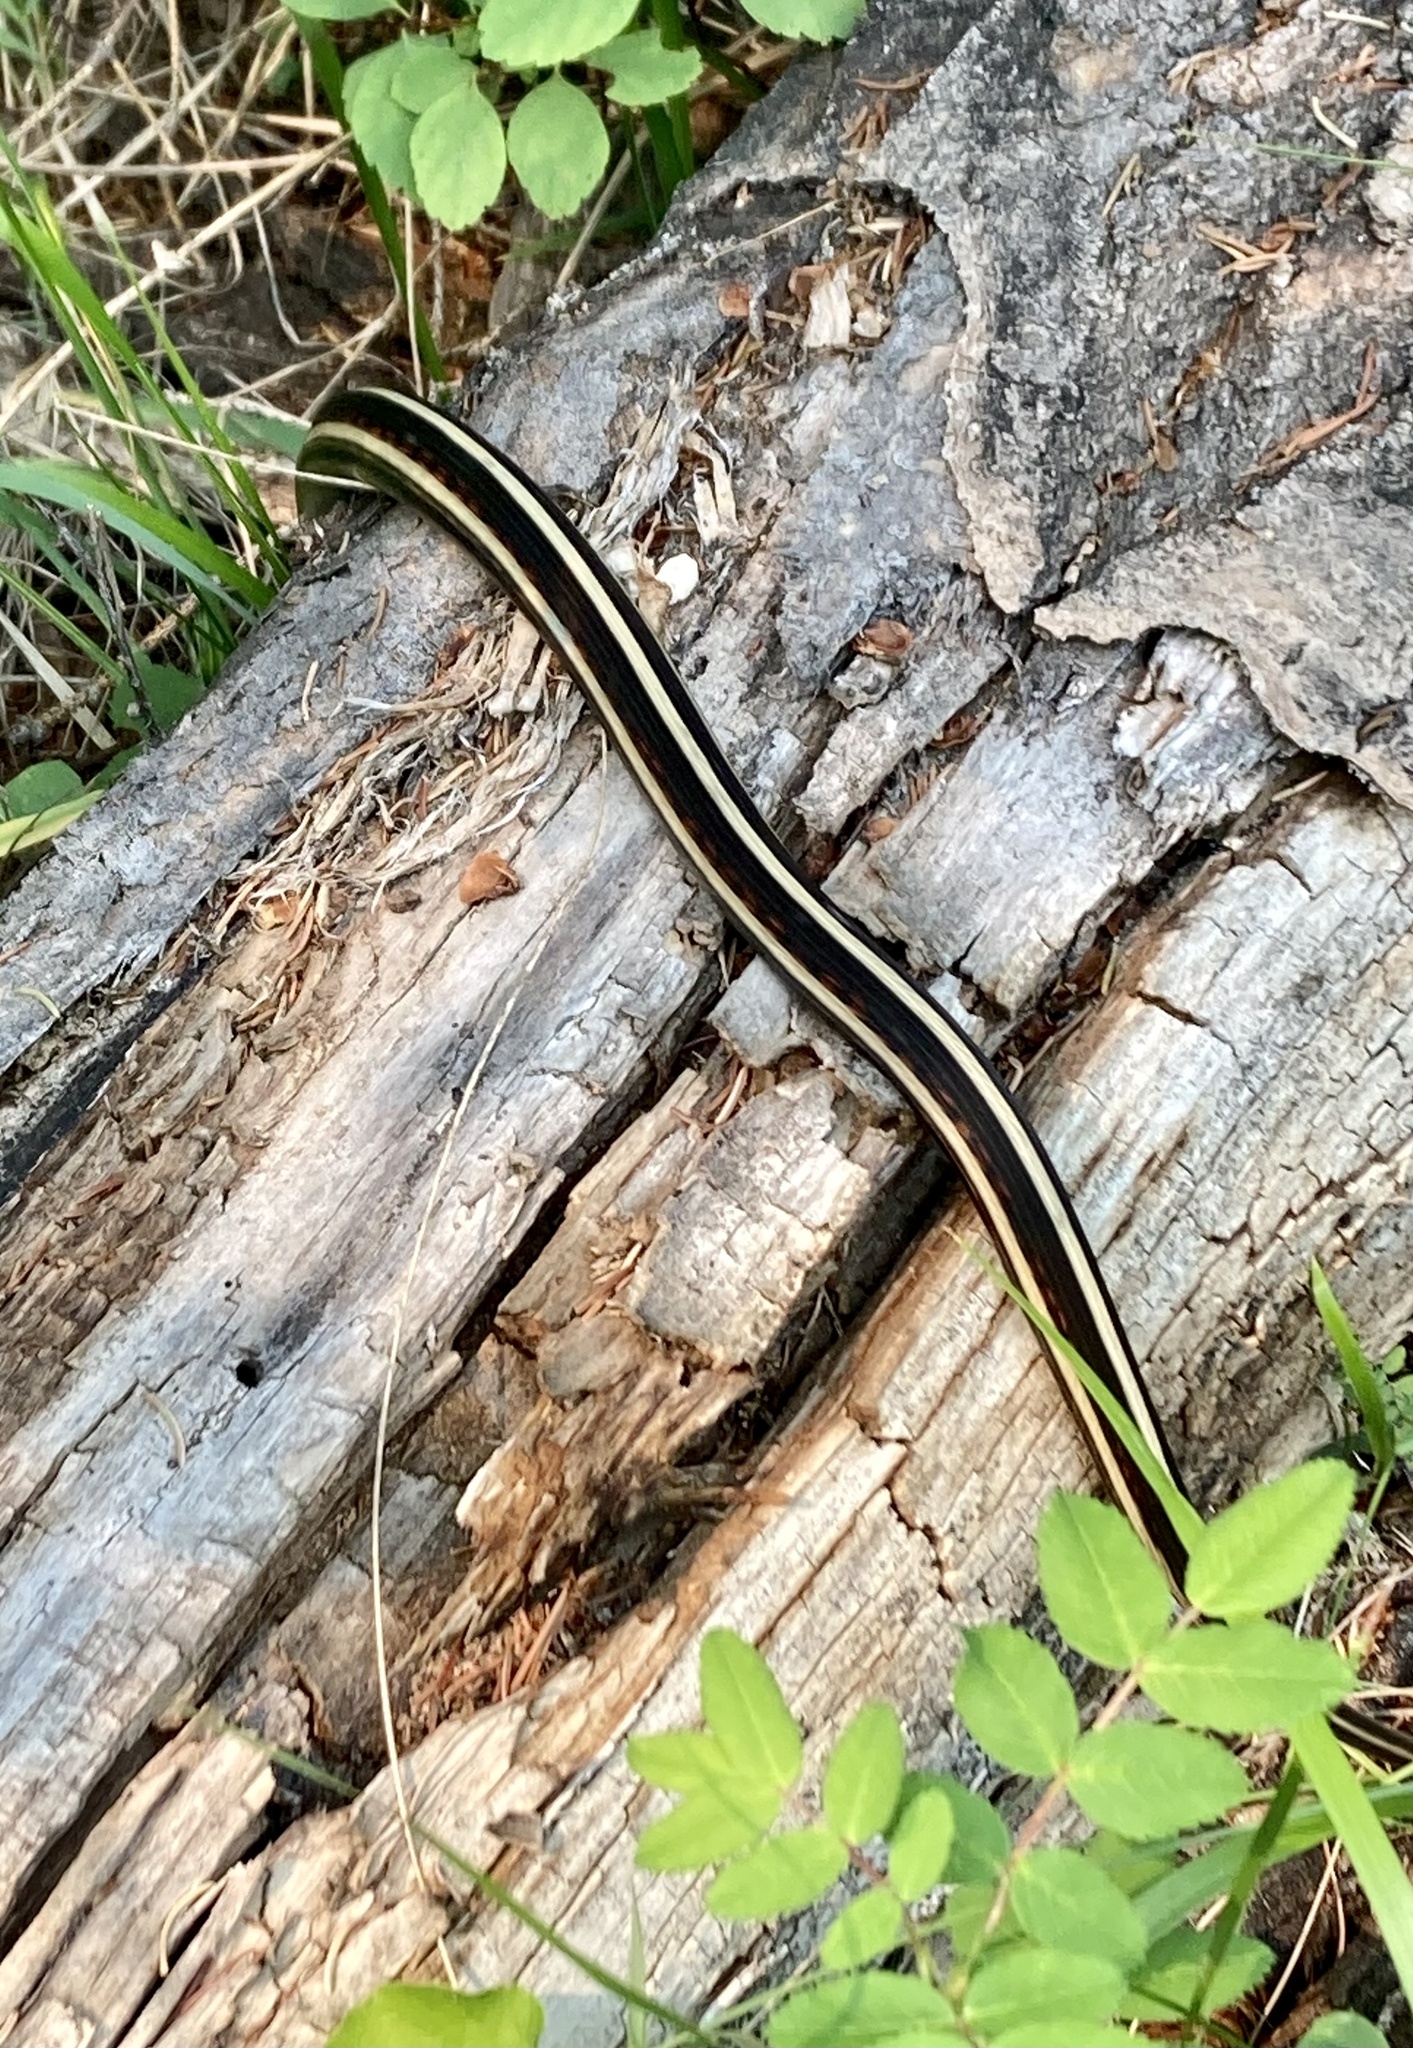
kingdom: Animalia
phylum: Chordata
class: Squamata
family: Colubridae
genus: Thamnophis
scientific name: Thamnophis sirtalis
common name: Common garter snake
